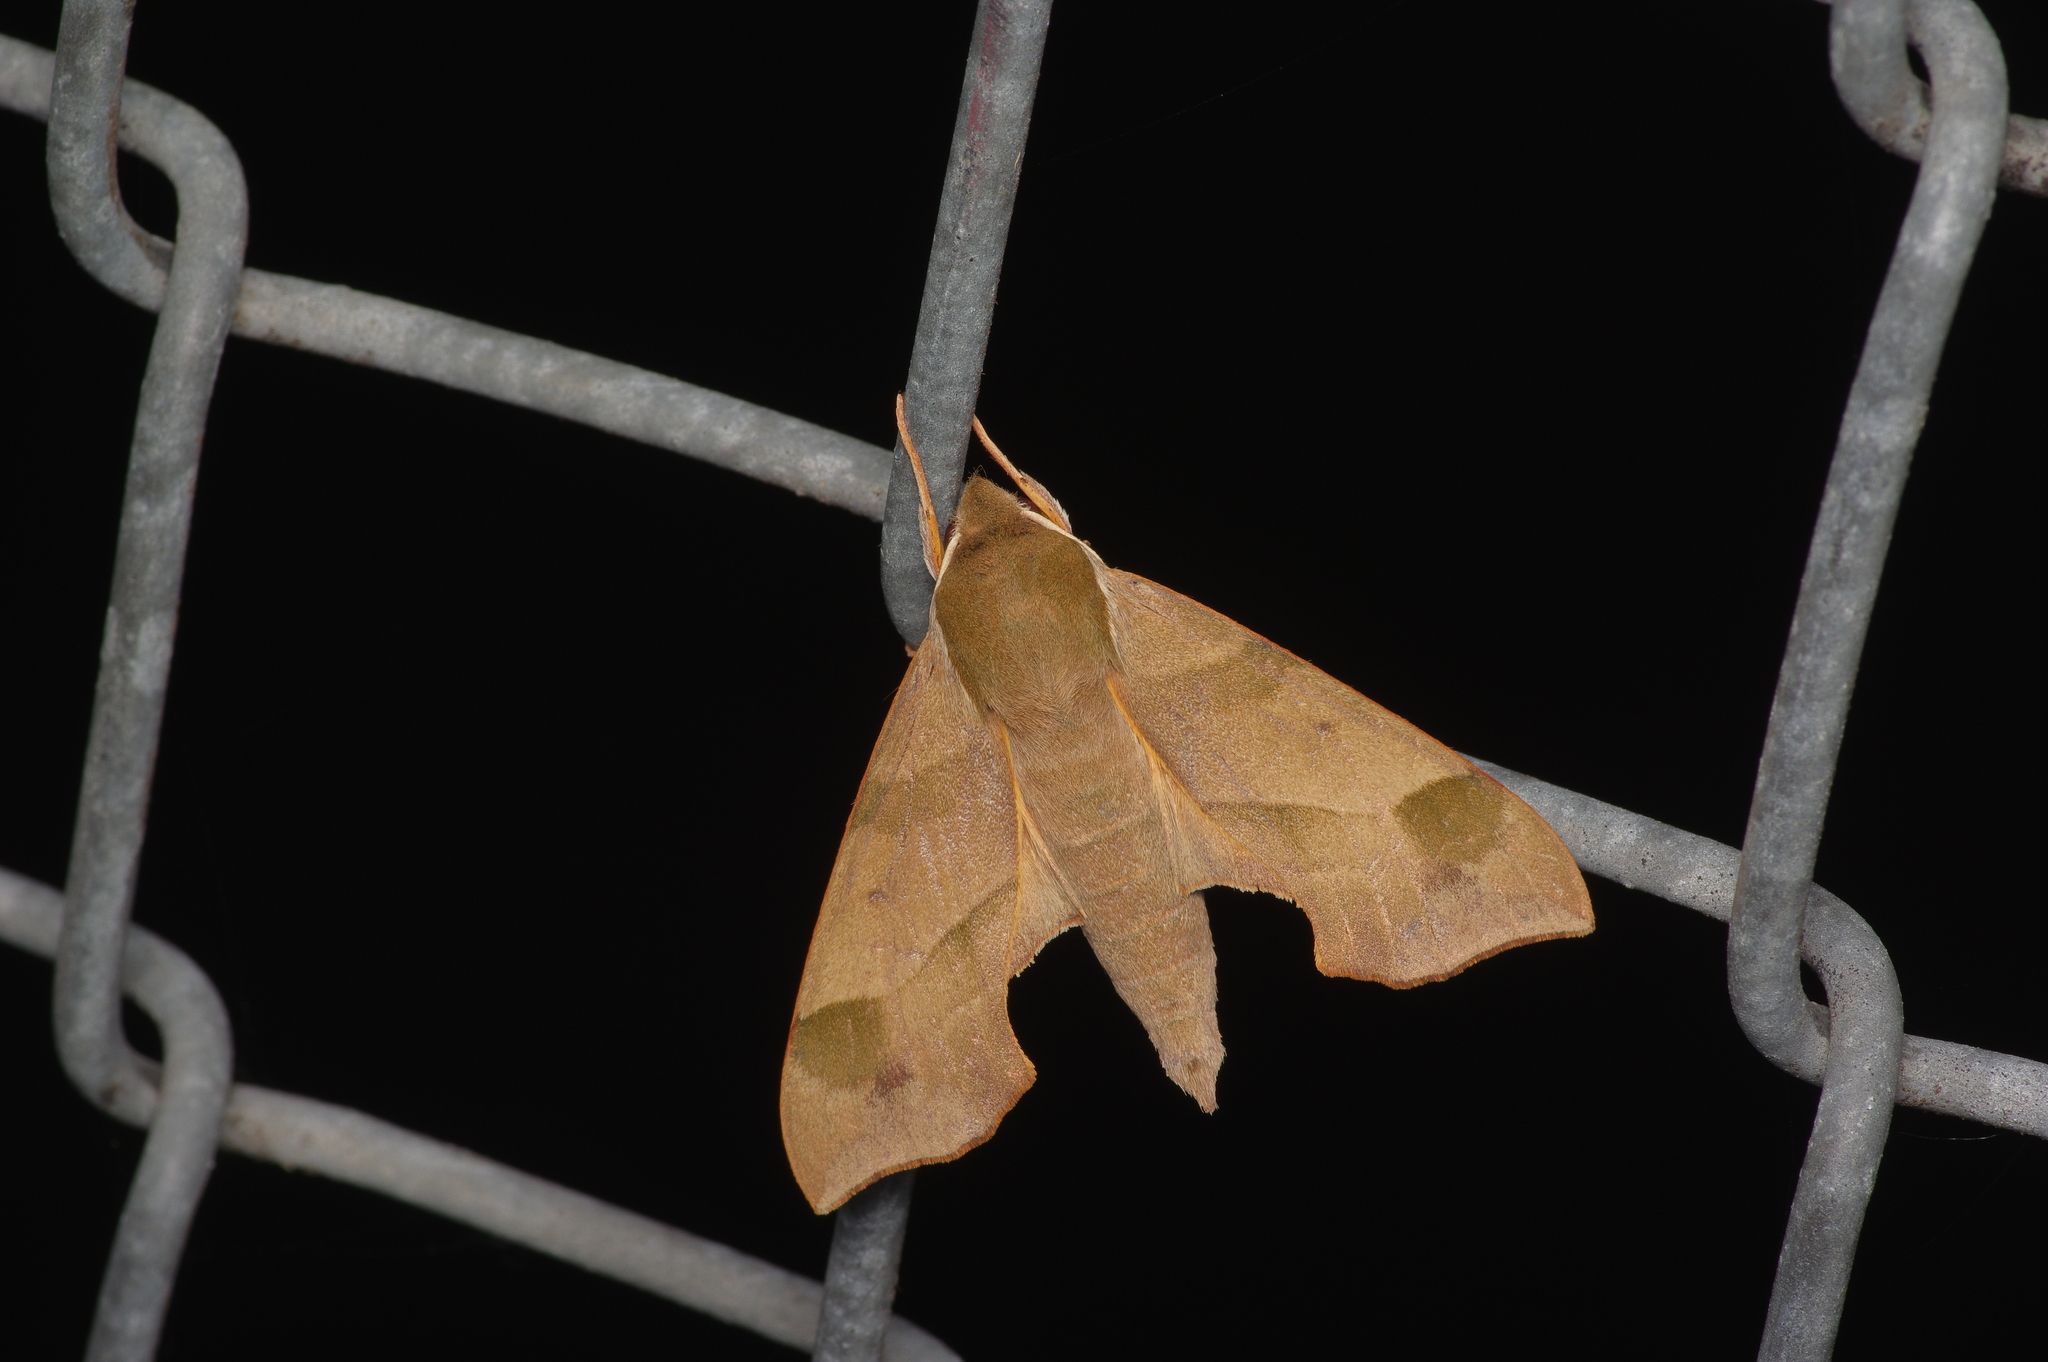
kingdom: Animalia
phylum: Arthropoda
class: Insecta
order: Lepidoptera
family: Sphingidae
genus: Darapsa
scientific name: Darapsa myron
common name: Hog sphinx
